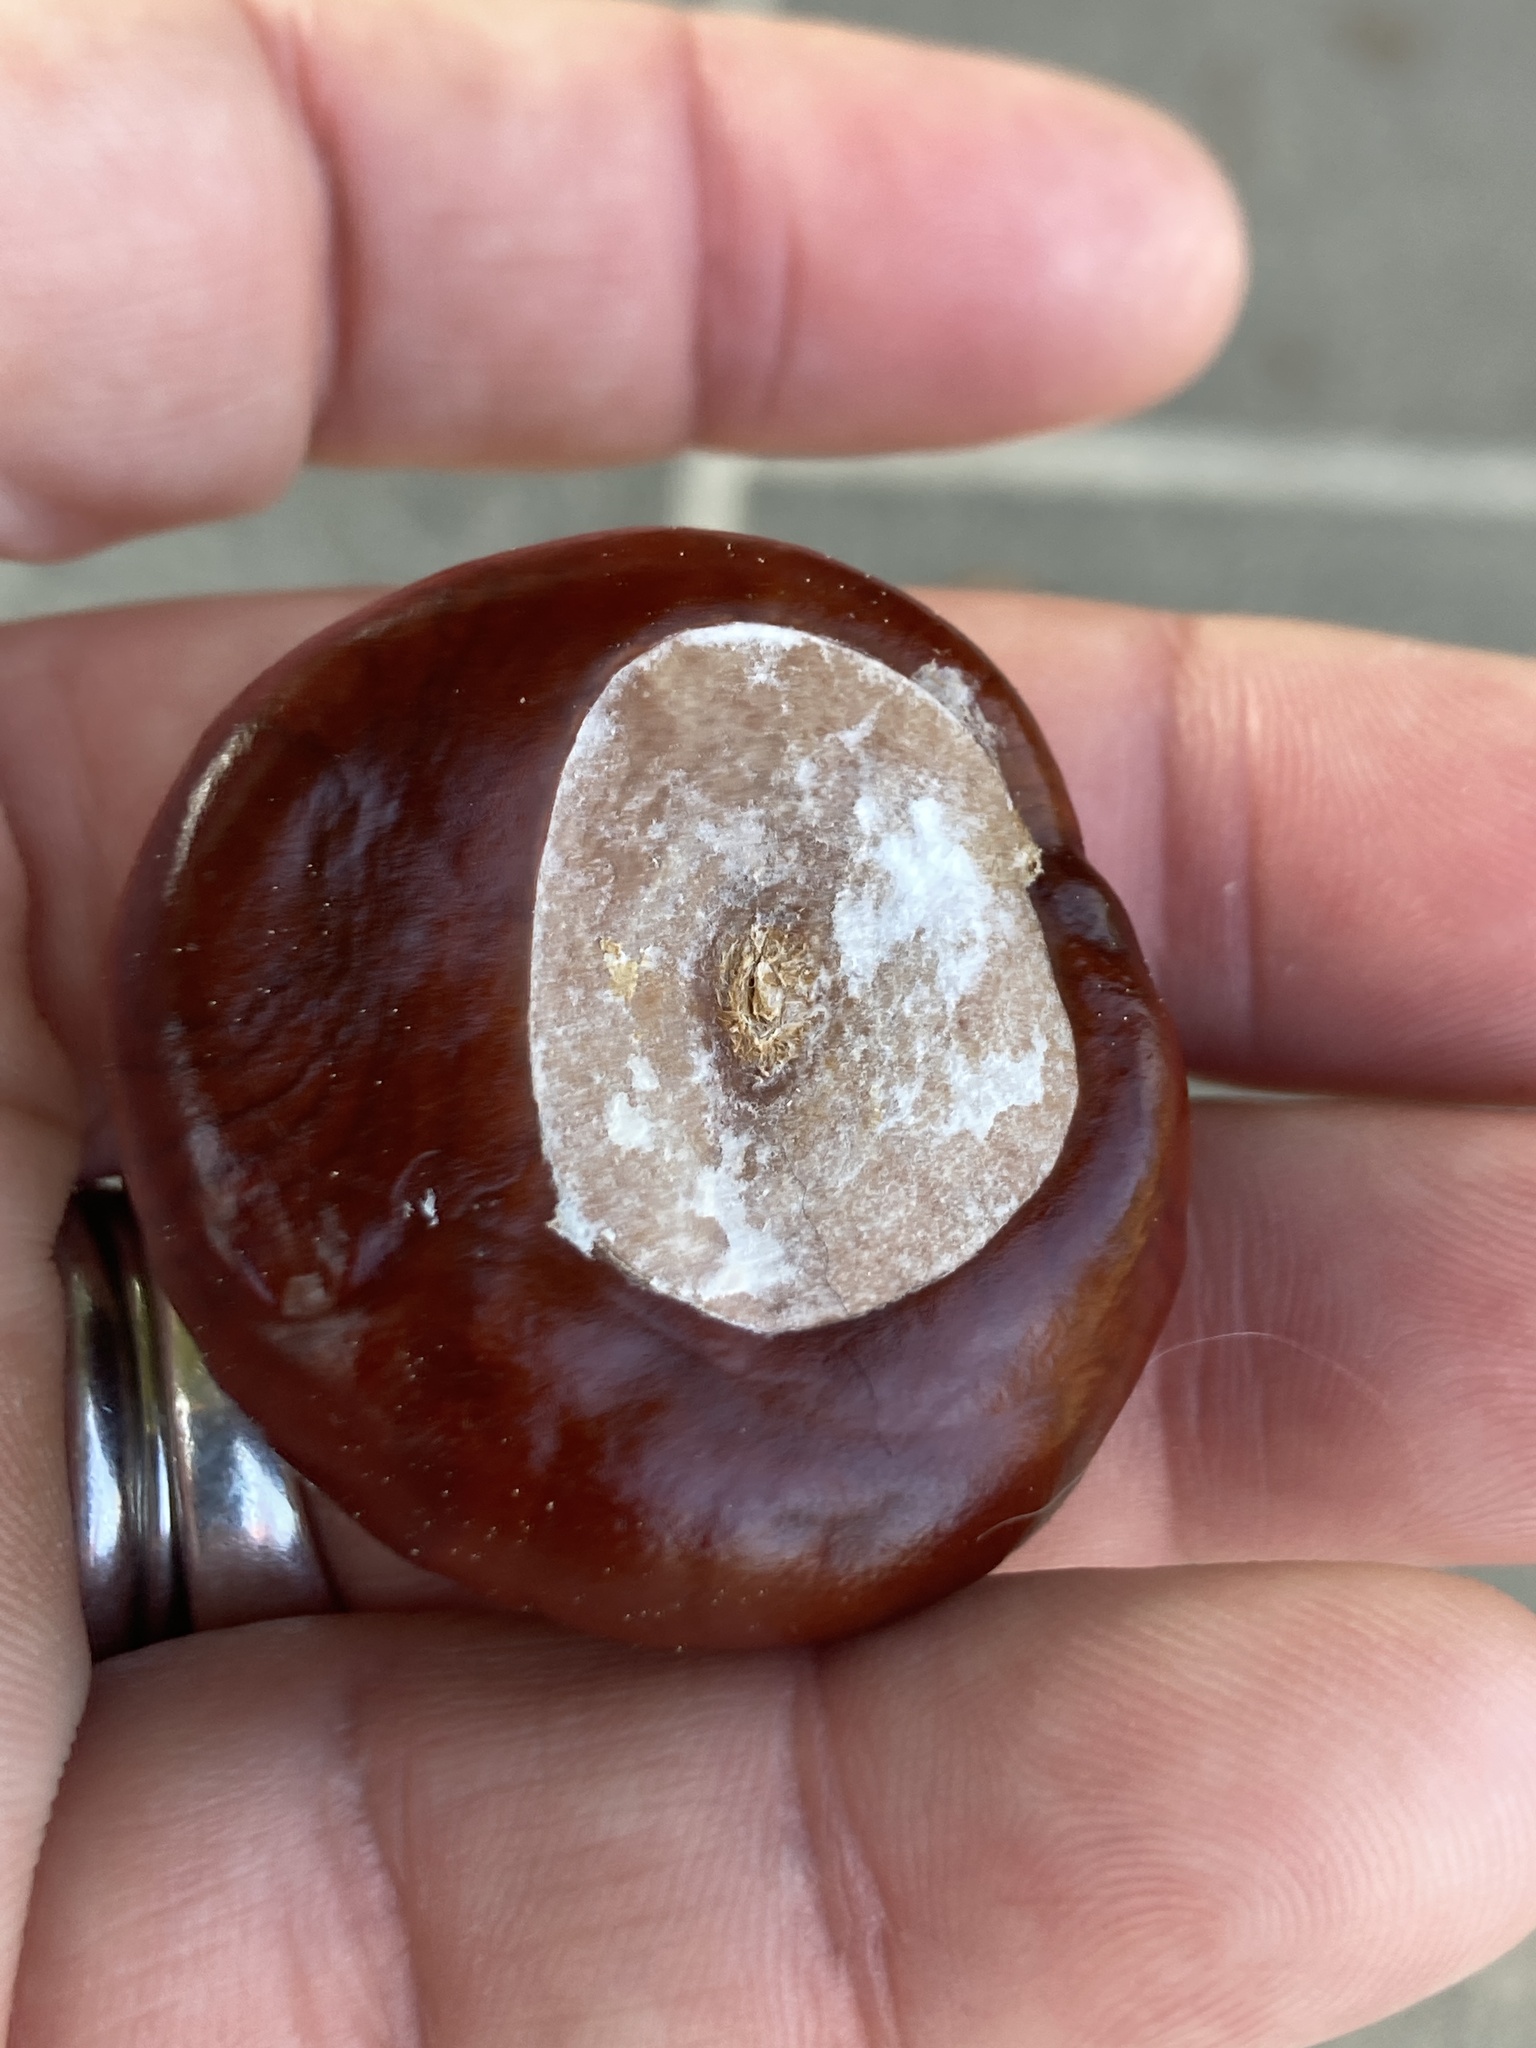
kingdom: Plantae
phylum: Tracheophyta
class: Magnoliopsida
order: Sapindales
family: Sapindaceae
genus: Aesculus
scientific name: Aesculus hippocastanum
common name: Horse-chestnut
